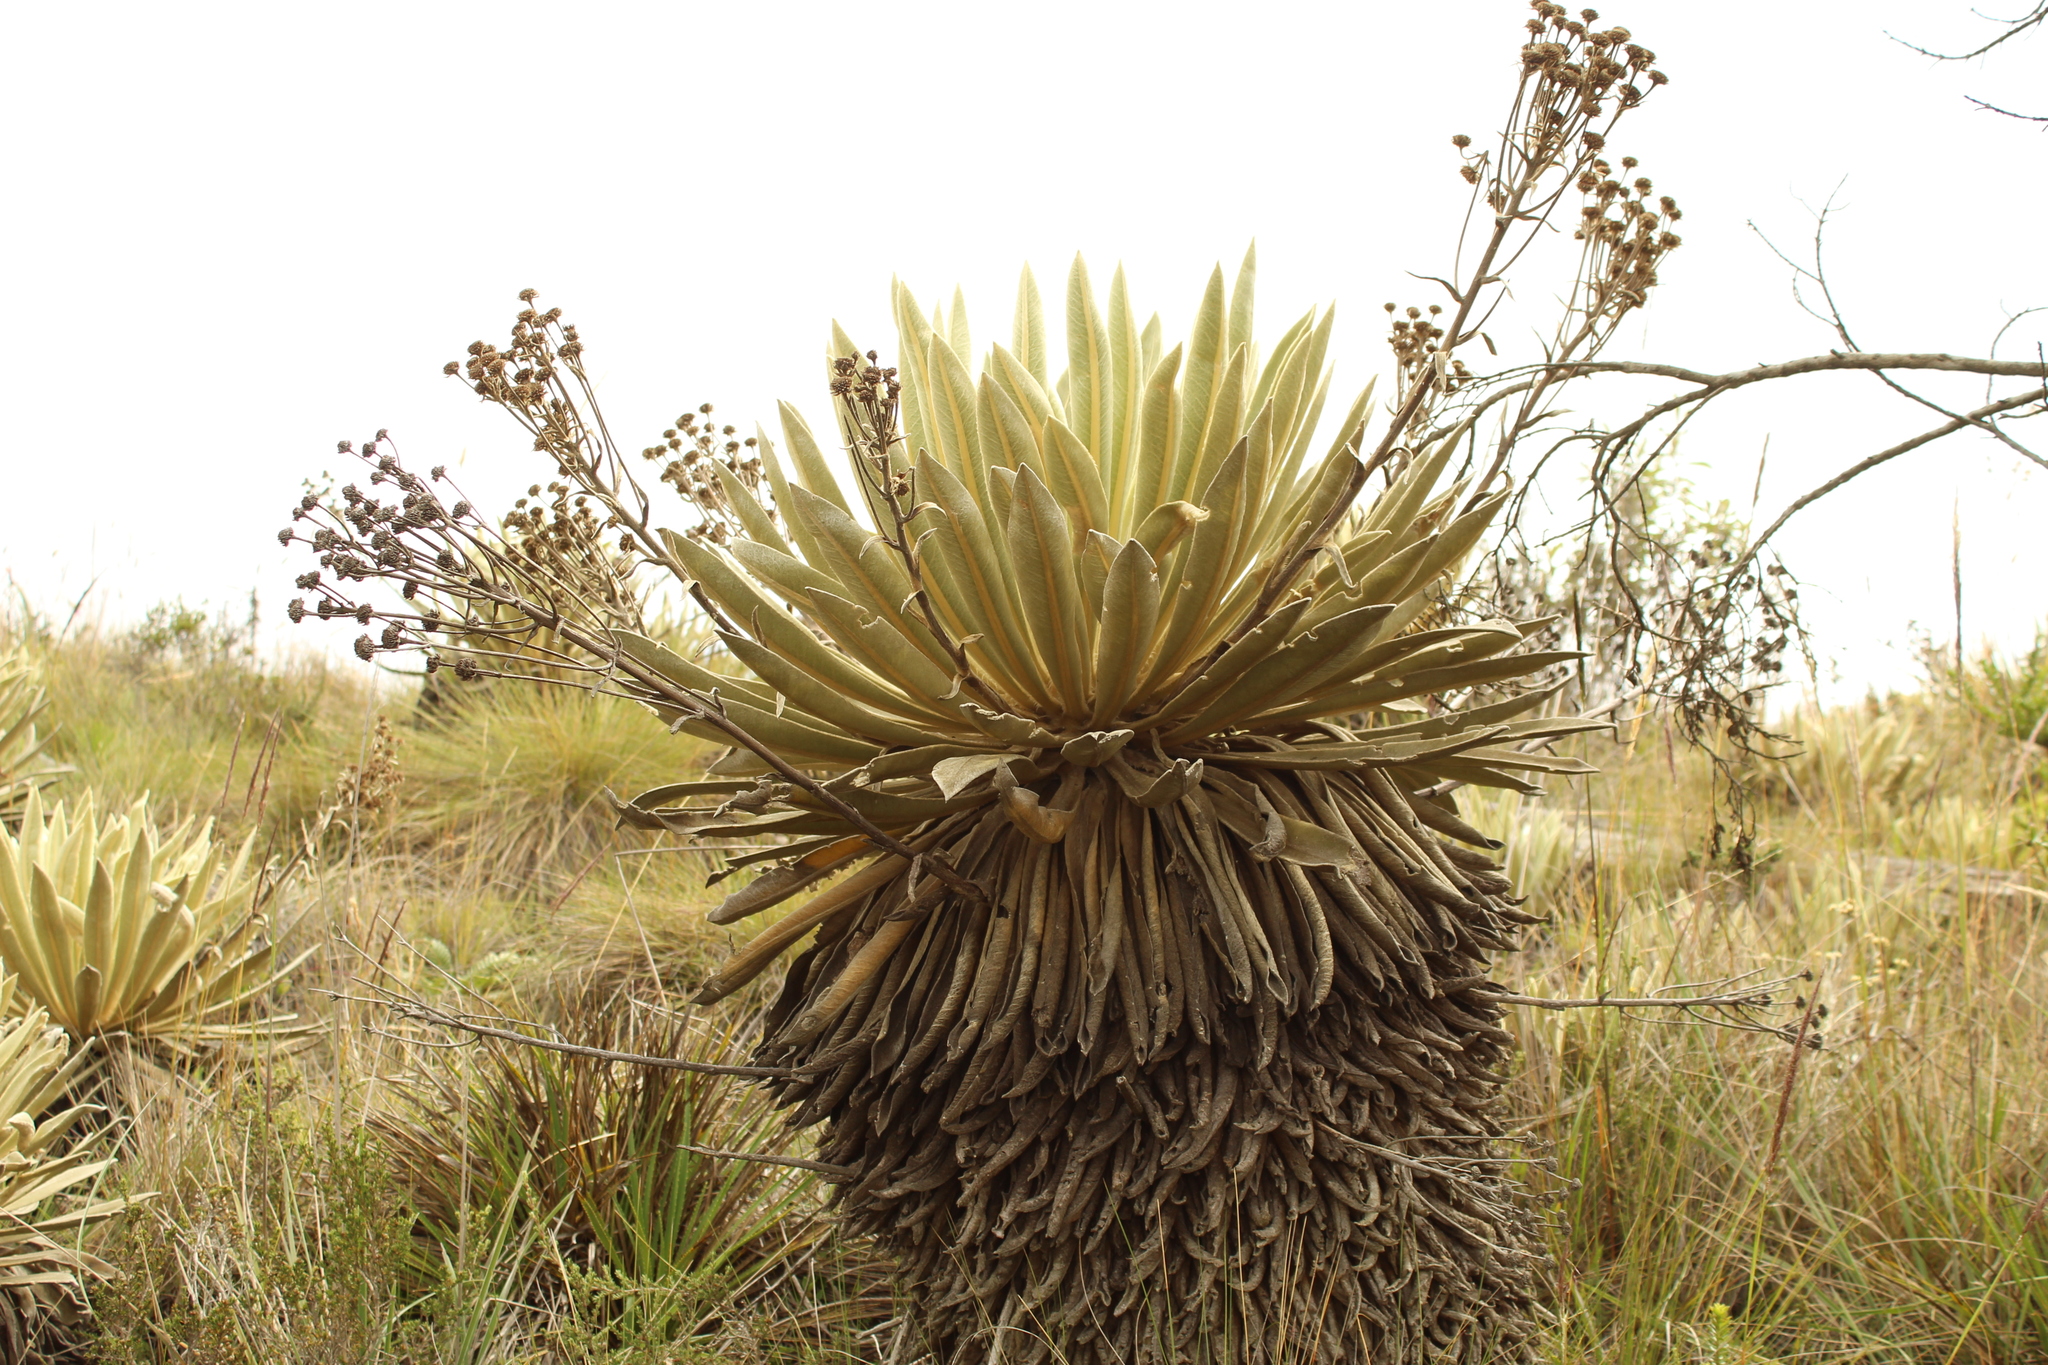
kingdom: Plantae
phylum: Tracheophyta
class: Magnoliopsida
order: Asterales
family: Asteraceae
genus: Espeletia
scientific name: Espeletia muiska
